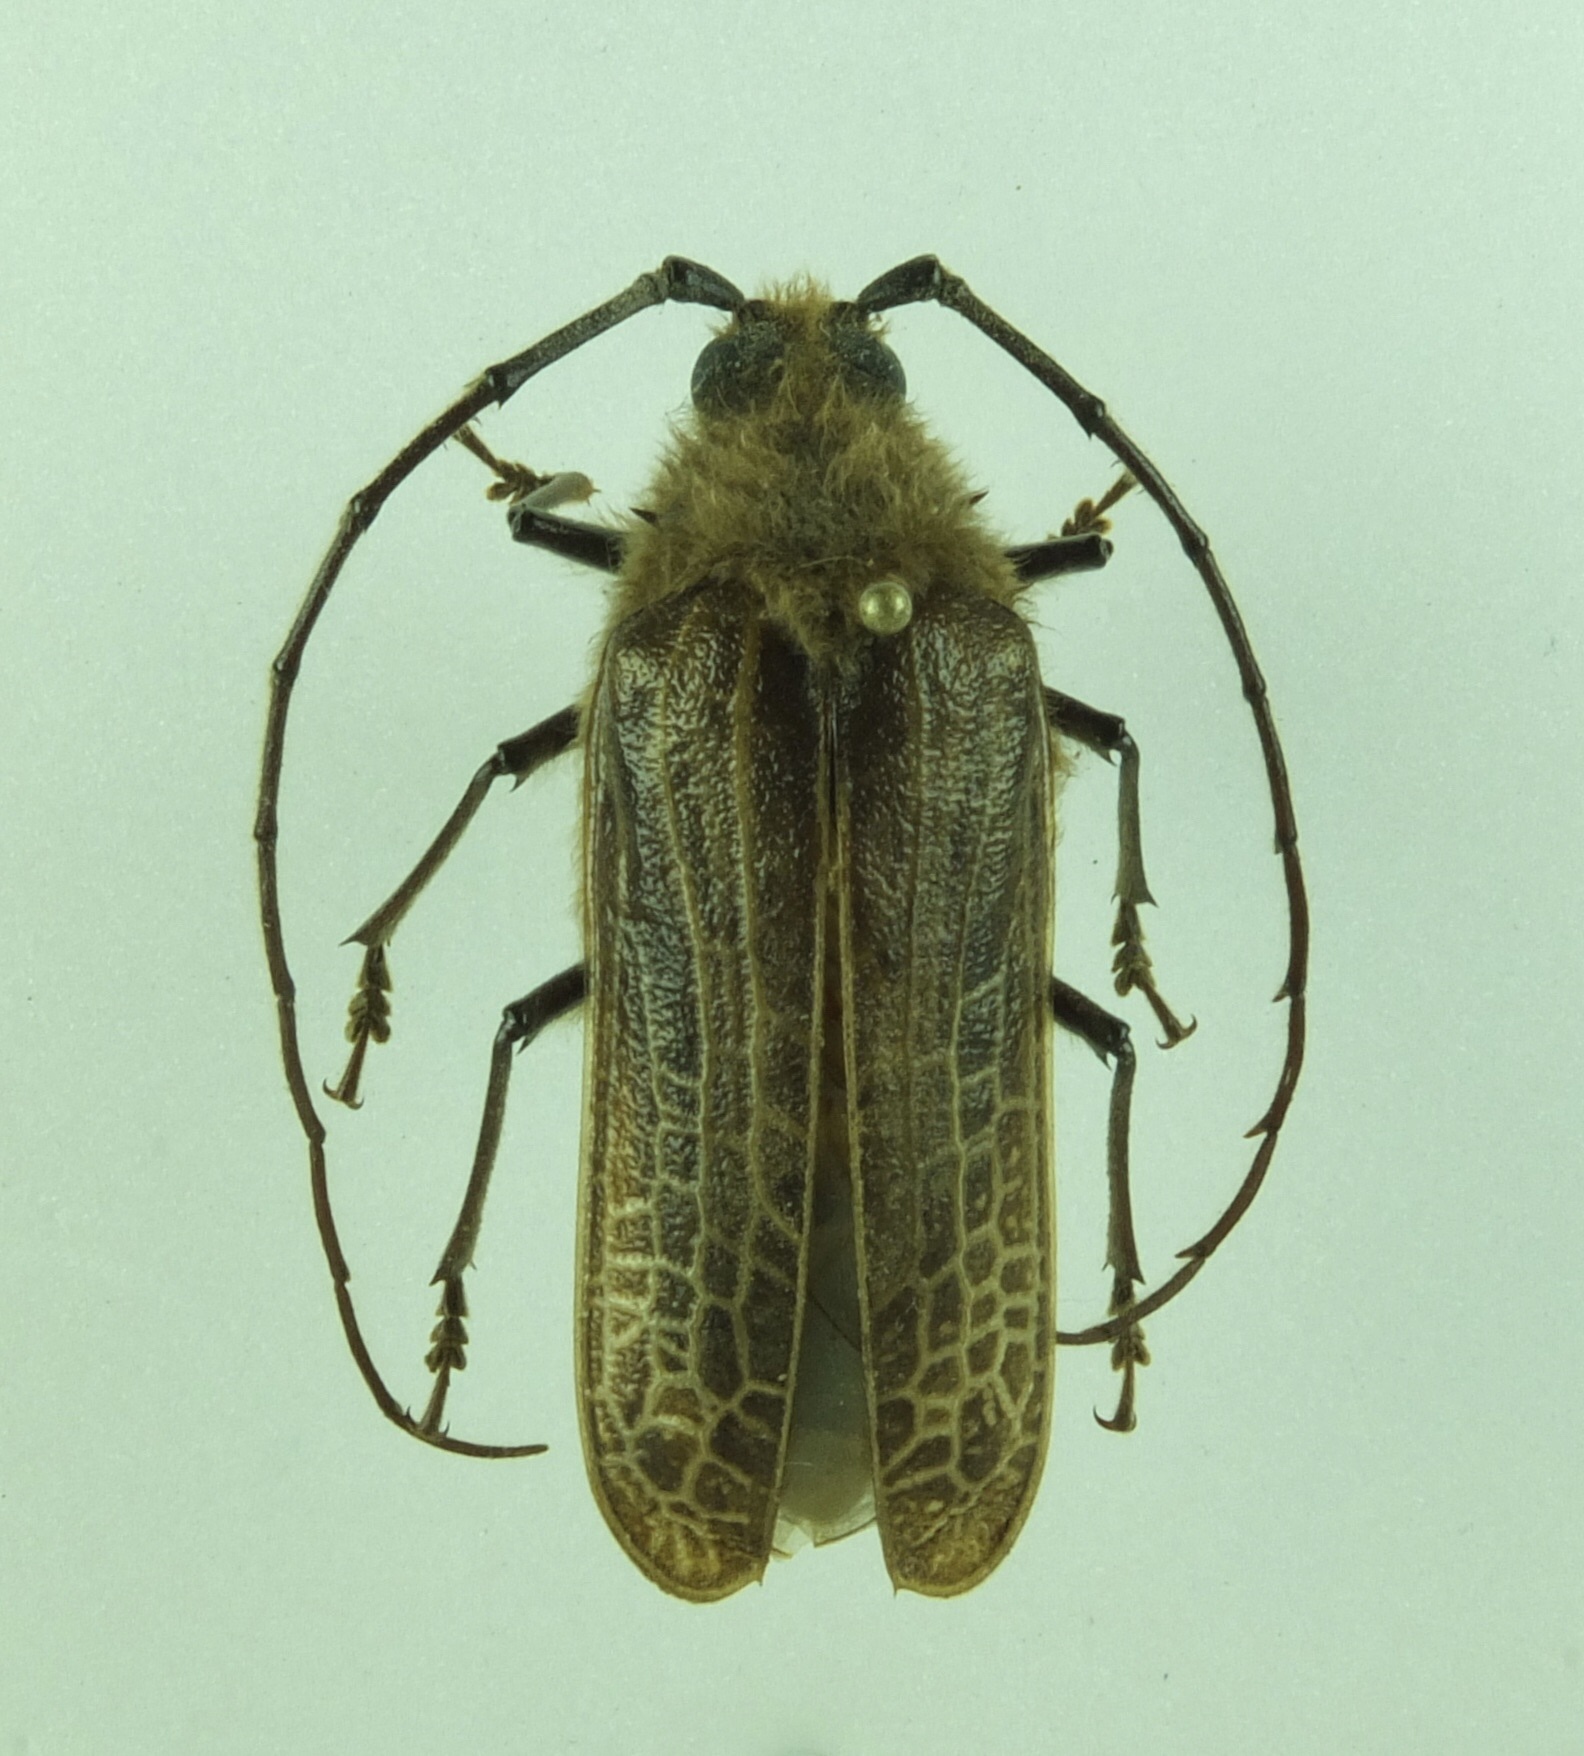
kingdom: Animalia
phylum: Arthropoda
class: Insecta
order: Coleoptera
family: Cerambycidae
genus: Prionoplus
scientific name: Prionoplus reticularis
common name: Huhu beetle
